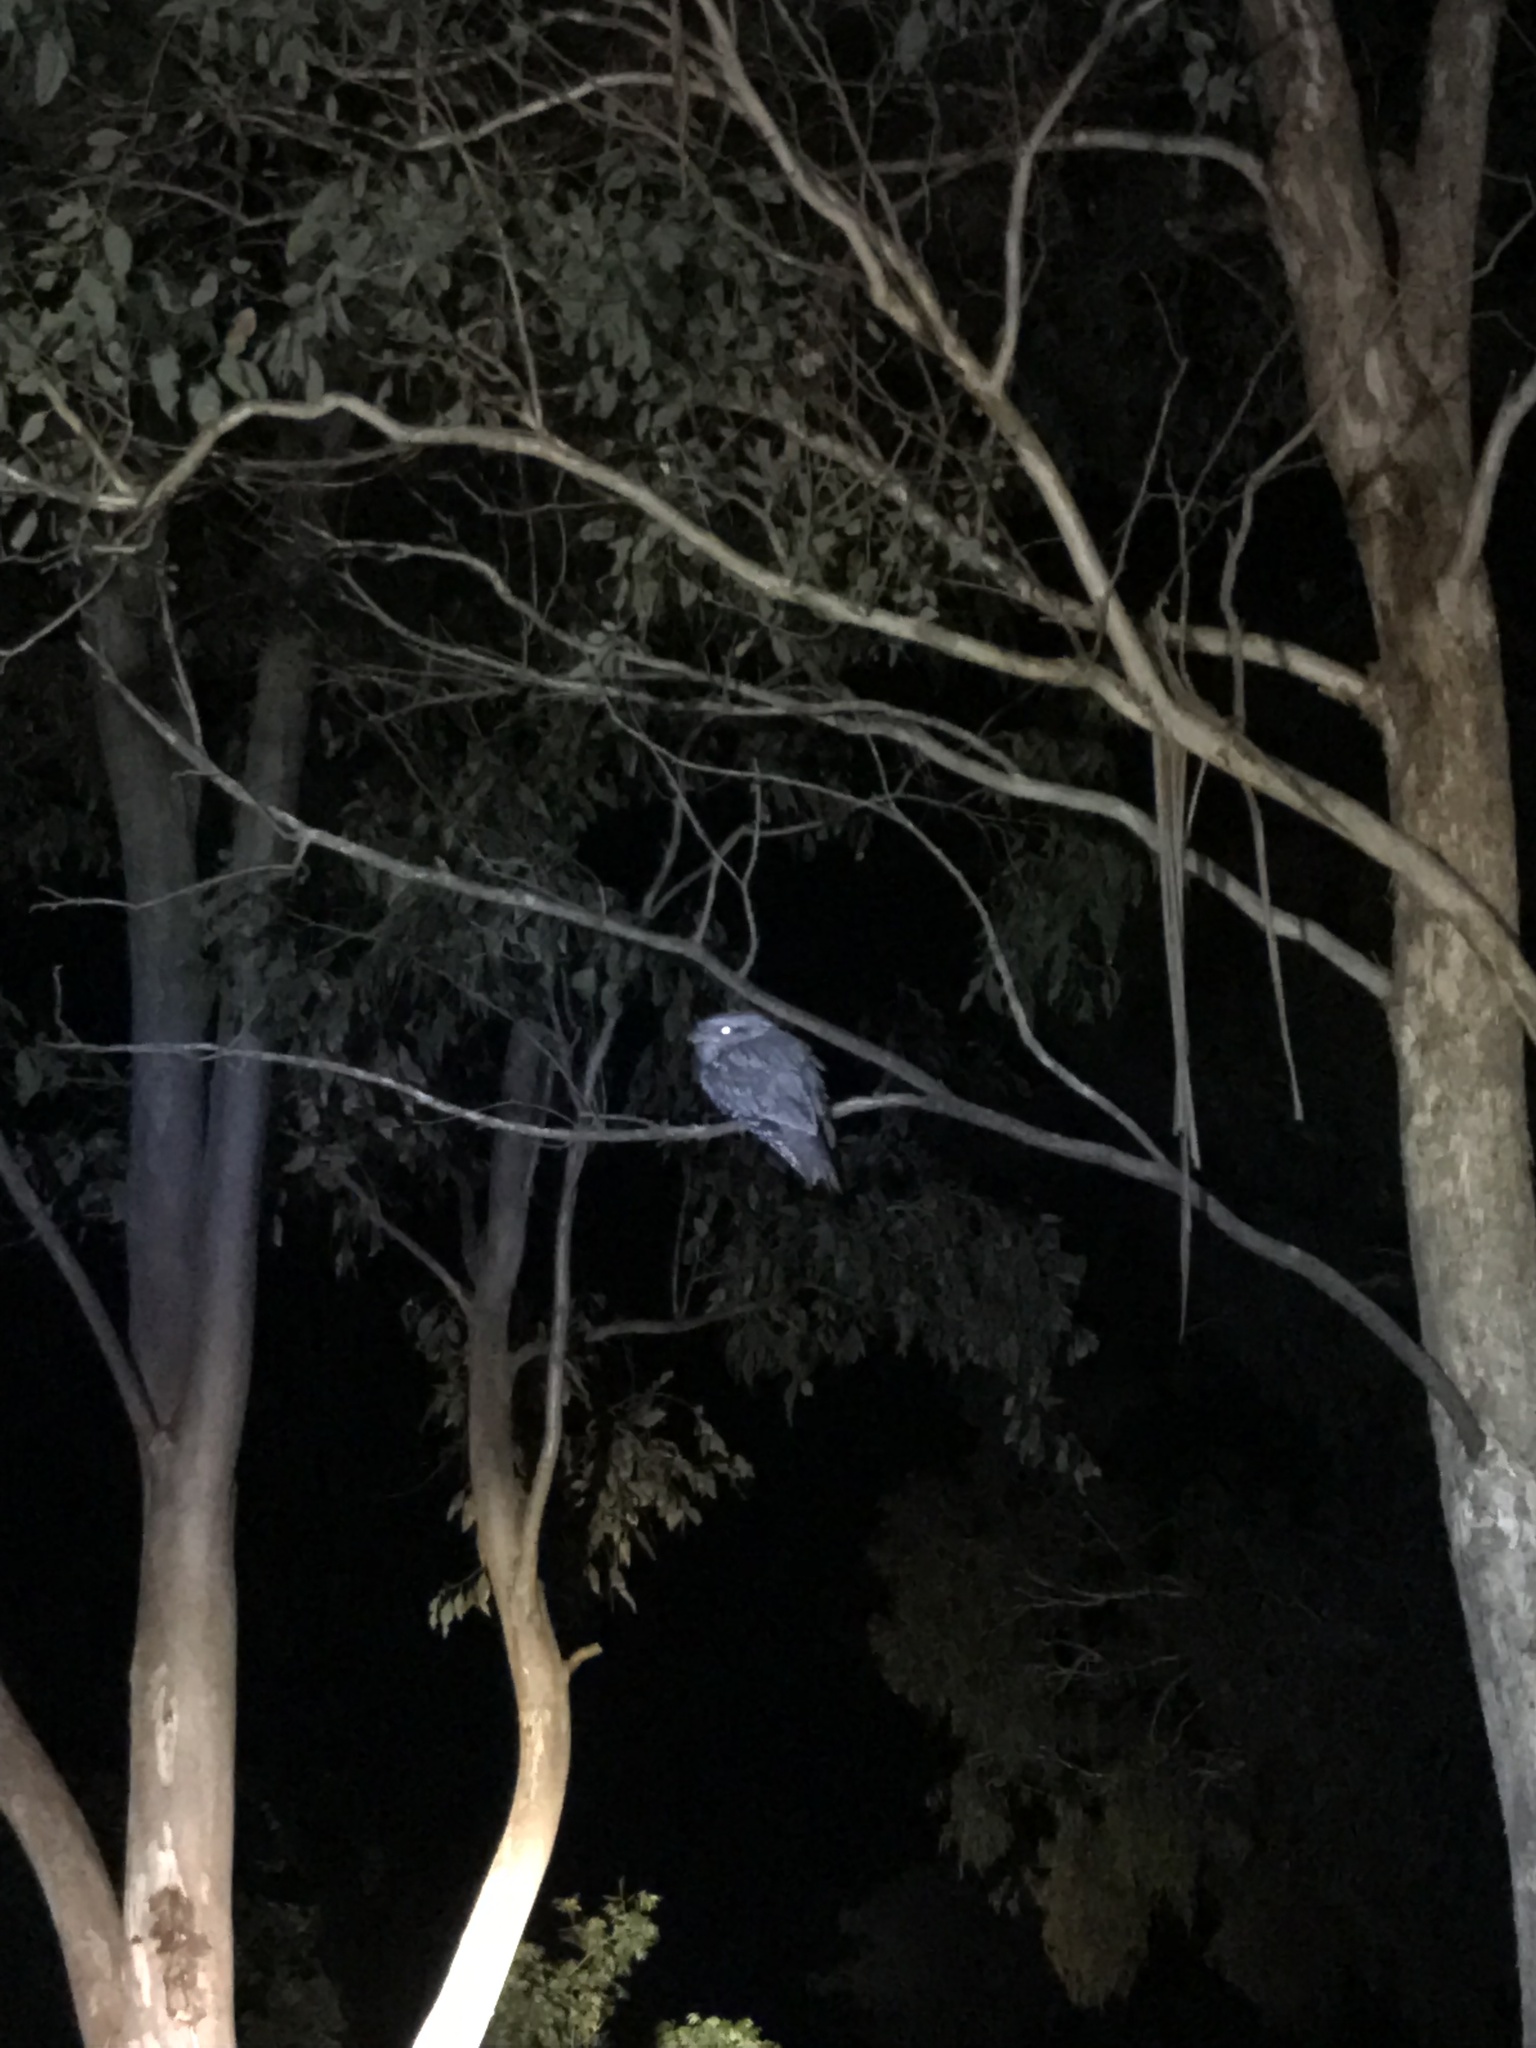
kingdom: Animalia
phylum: Chordata
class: Aves
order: Caprimulgiformes
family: Podargidae
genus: Podargus
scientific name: Podargus strigoides
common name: Tawny frogmouth
